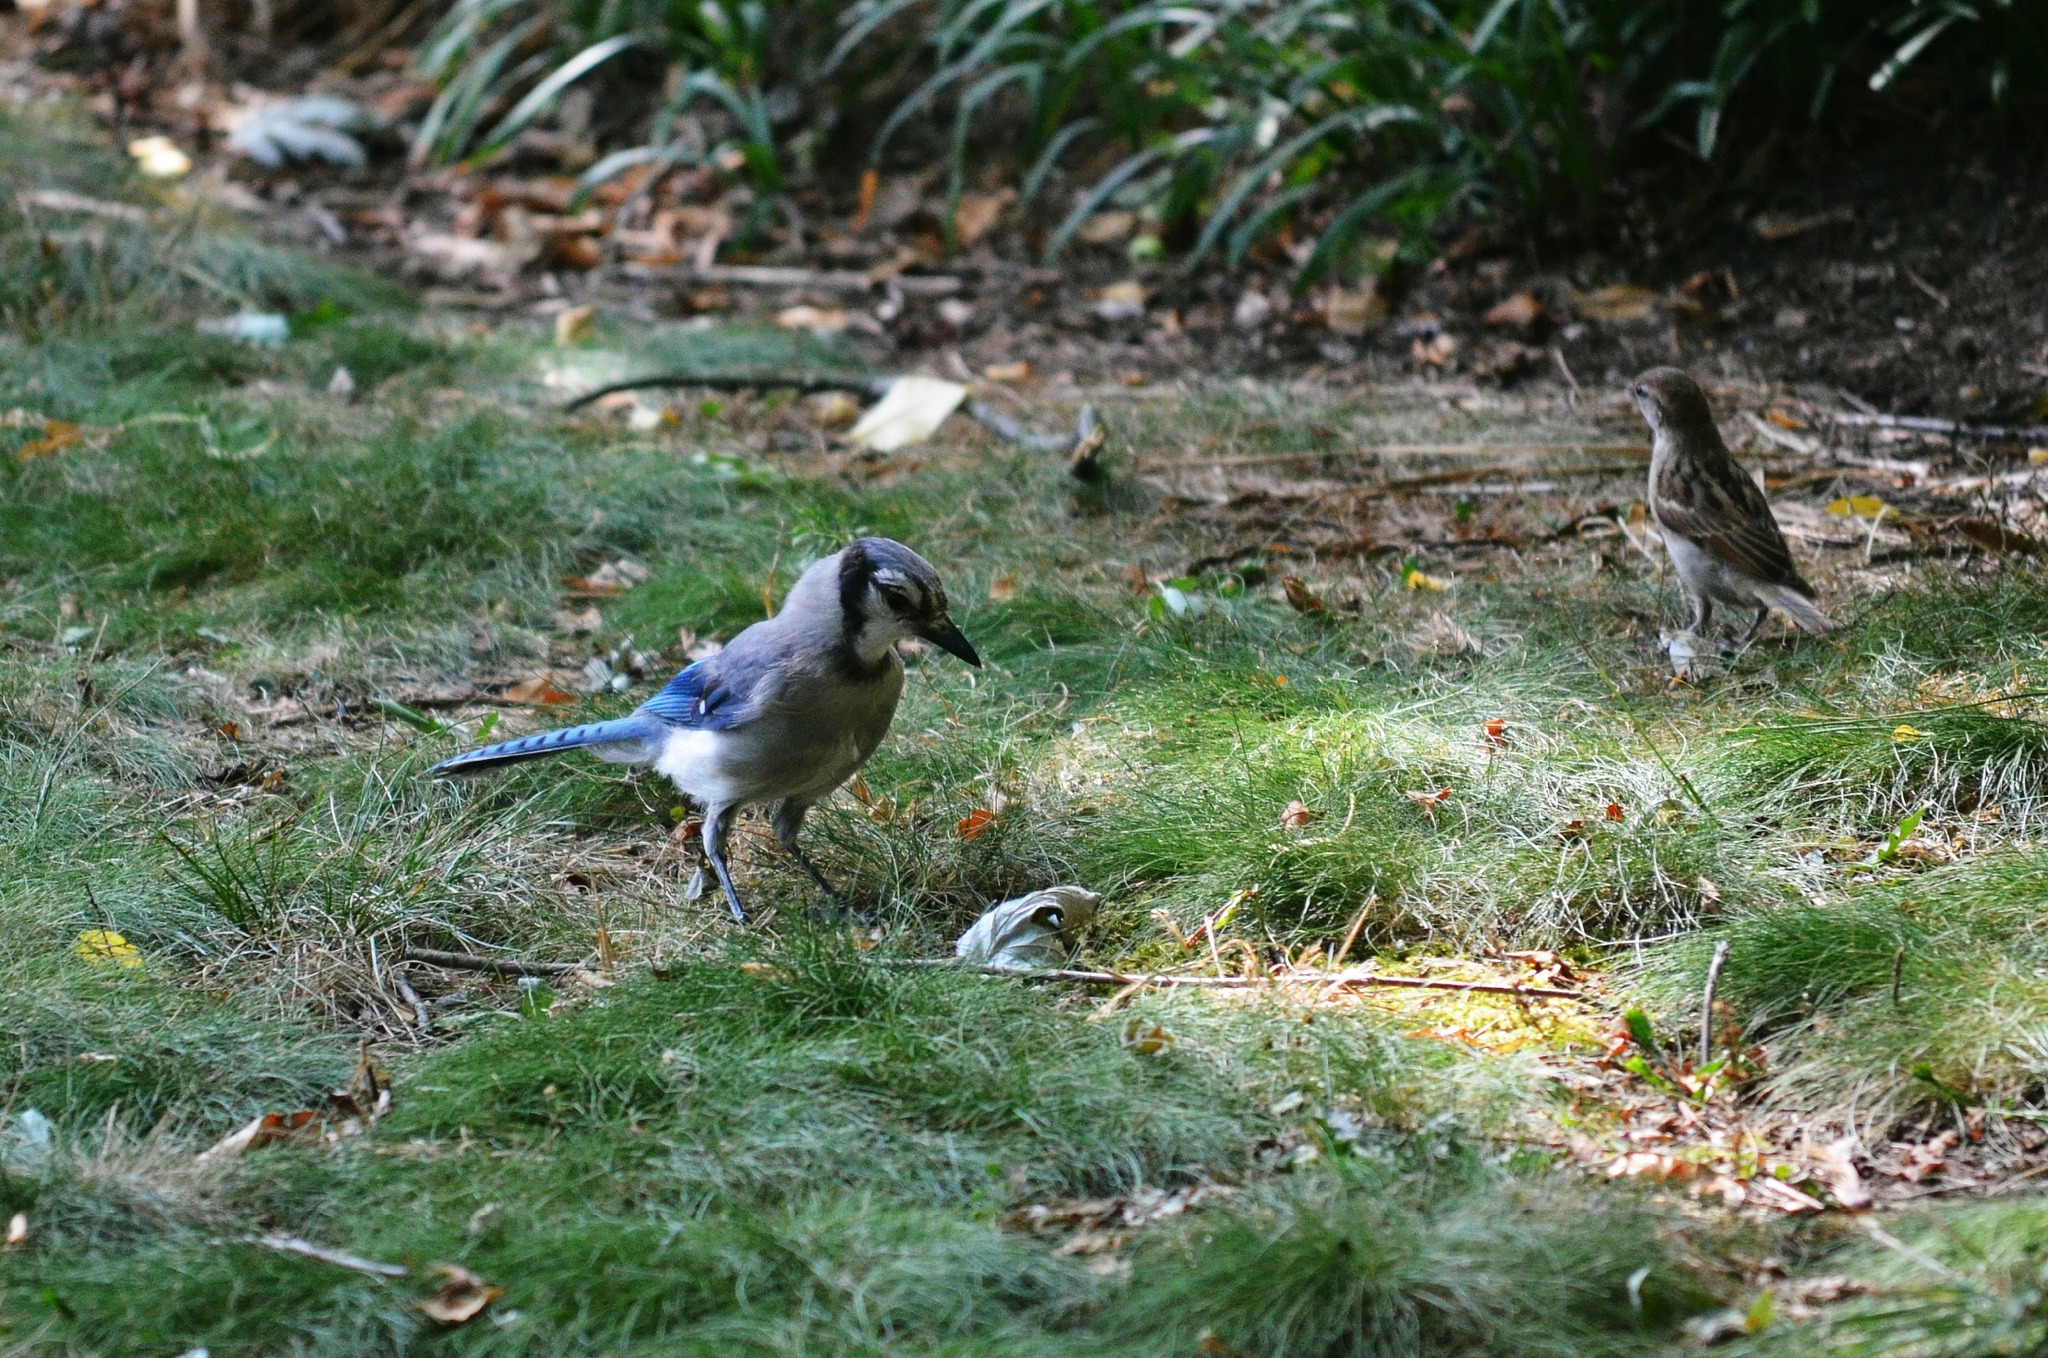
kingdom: Animalia
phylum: Chordata
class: Aves
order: Passeriformes
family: Corvidae
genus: Cyanocitta
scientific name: Cyanocitta cristata
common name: Blue jay
